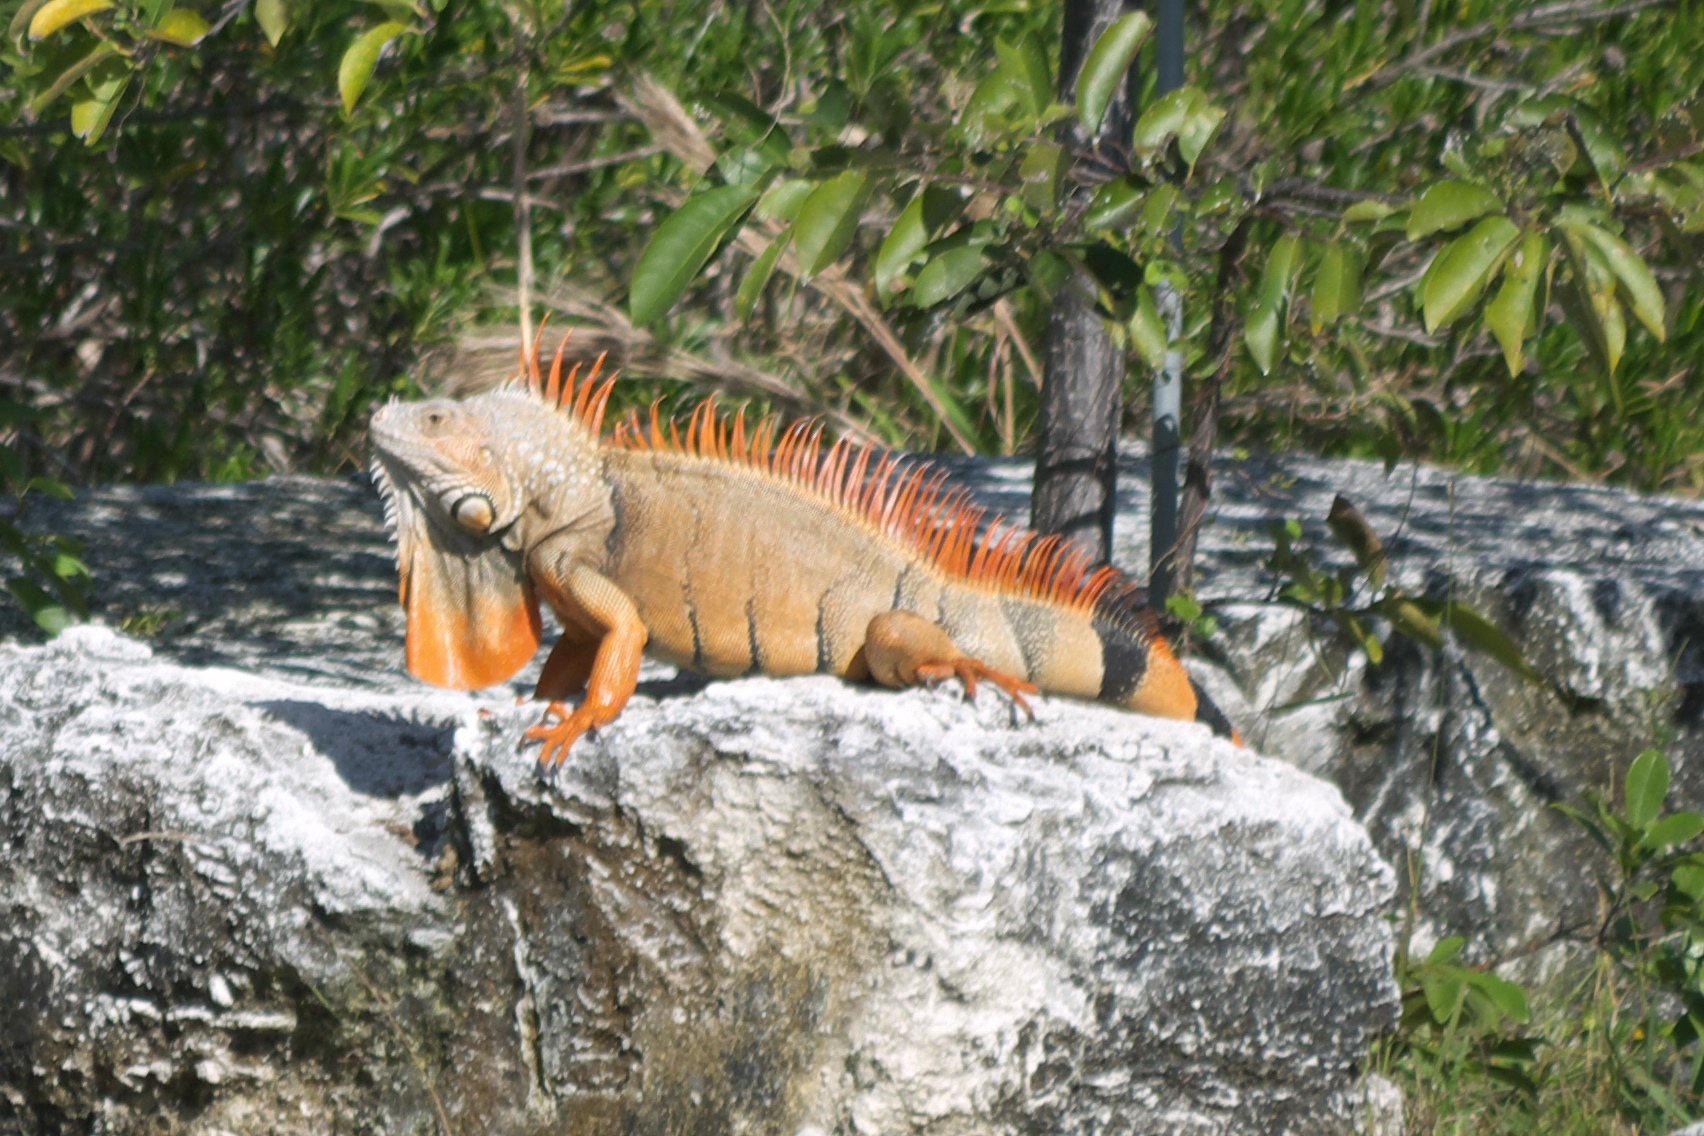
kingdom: Animalia
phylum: Chordata
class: Squamata
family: Iguanidae
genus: Iguana
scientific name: Iguana iguana
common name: Green iguana
